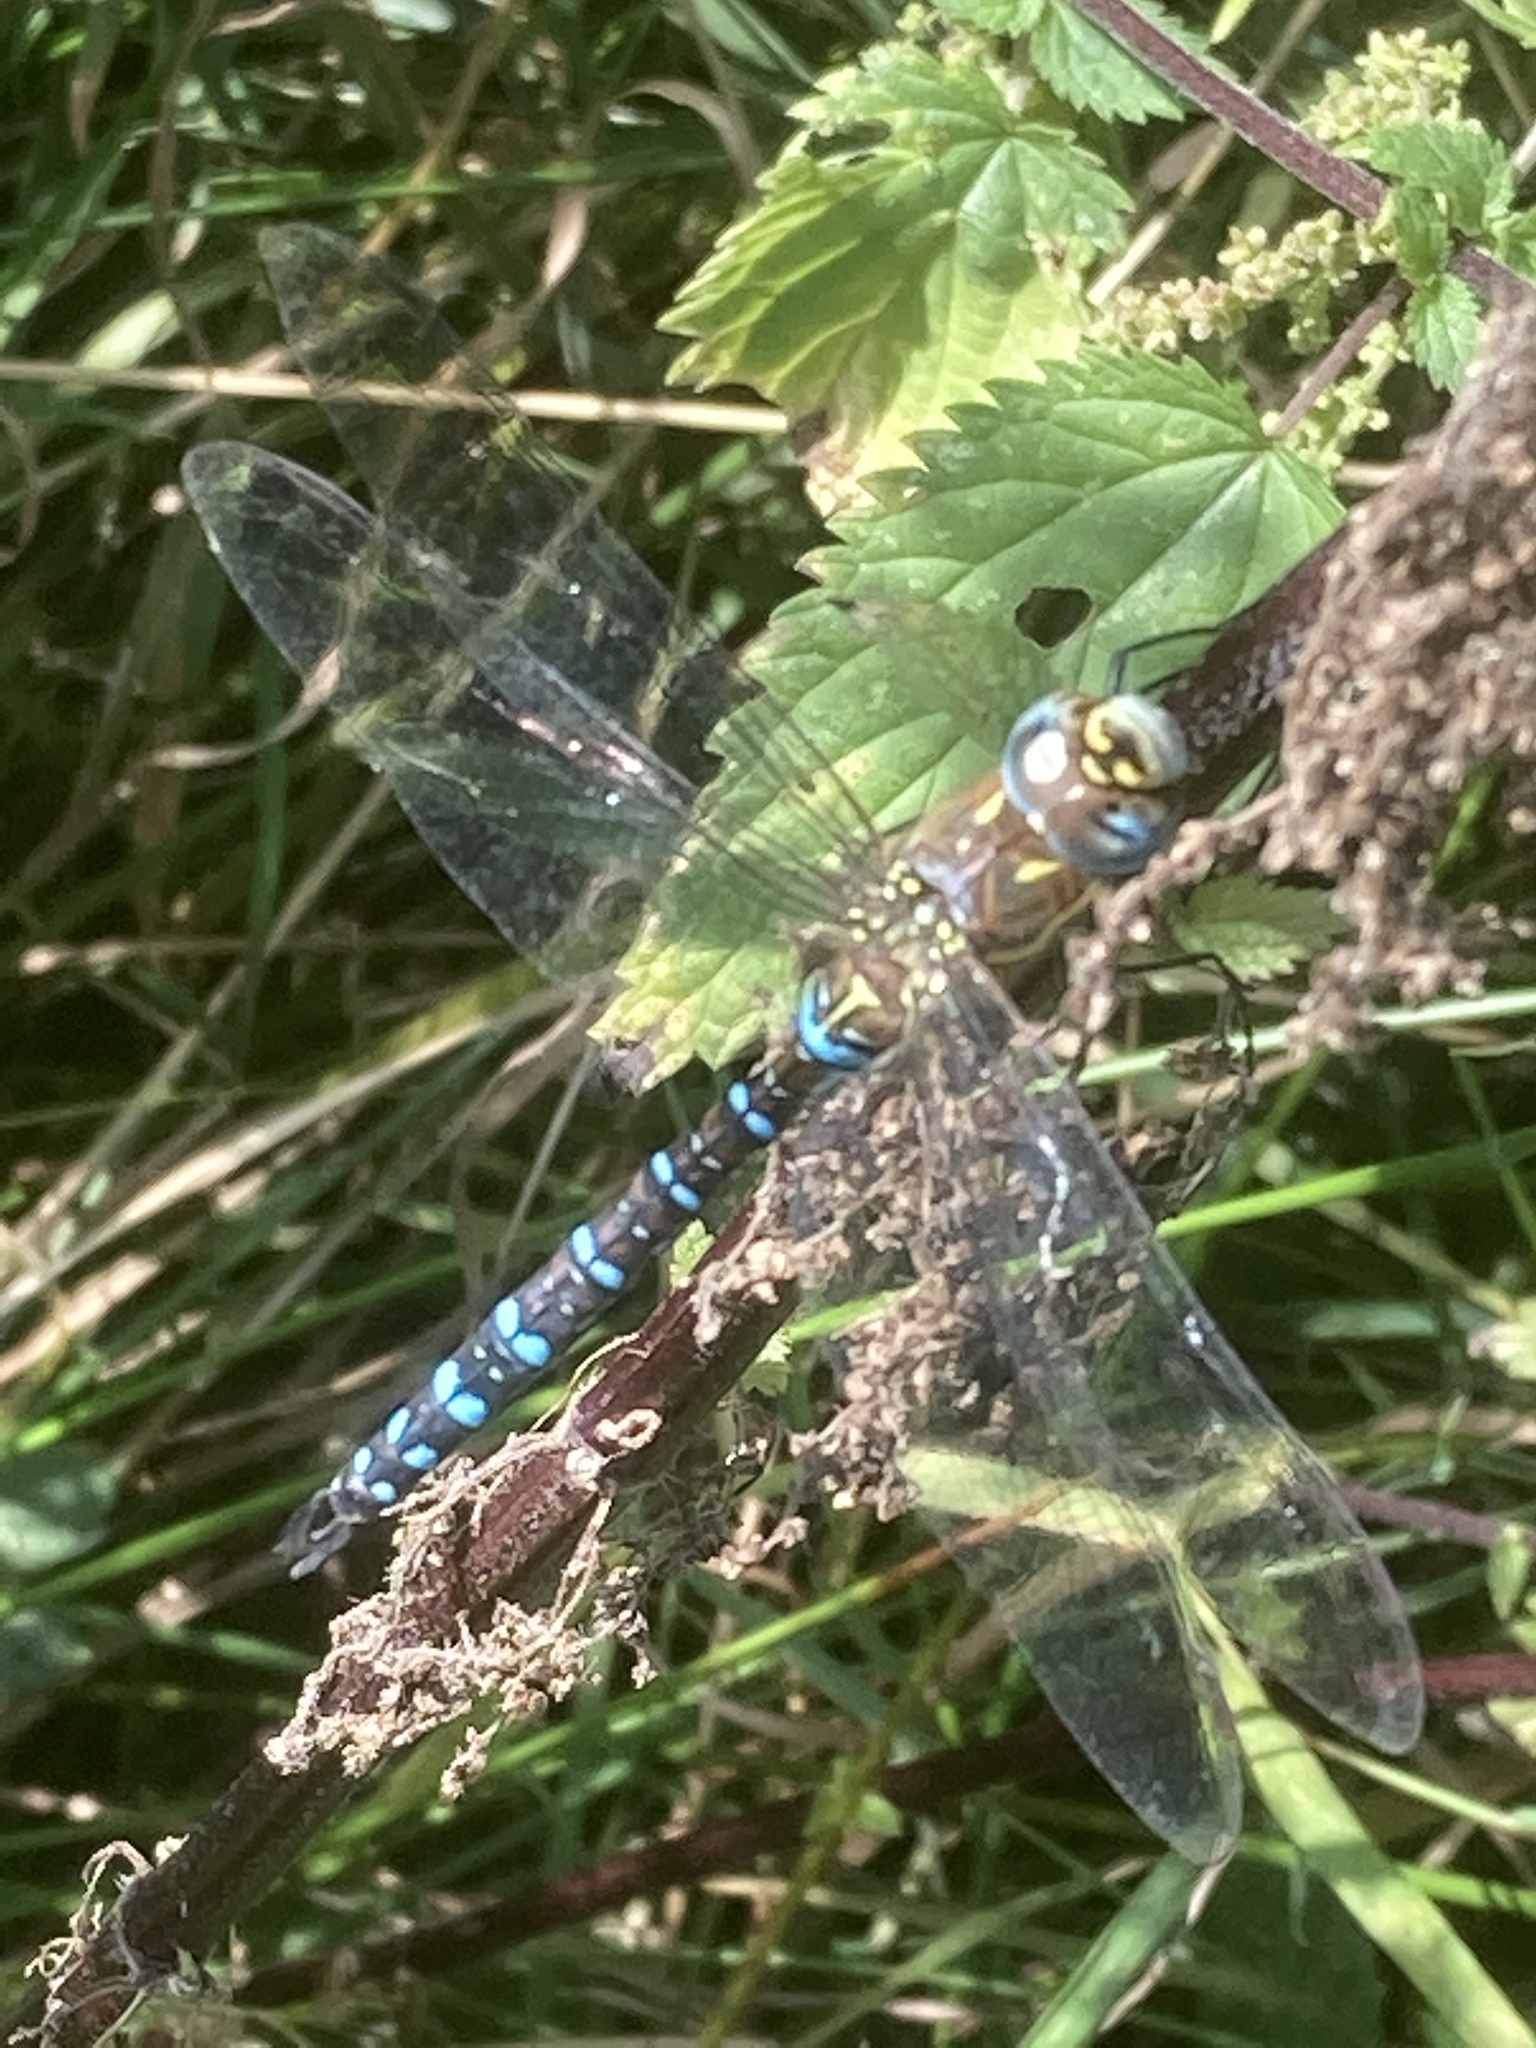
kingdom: Animalia
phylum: Arthropoda
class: Insecta
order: Odonata
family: Aeshnidae
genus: Aeshna
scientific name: Aeshna mixta
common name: Migrant hawker
